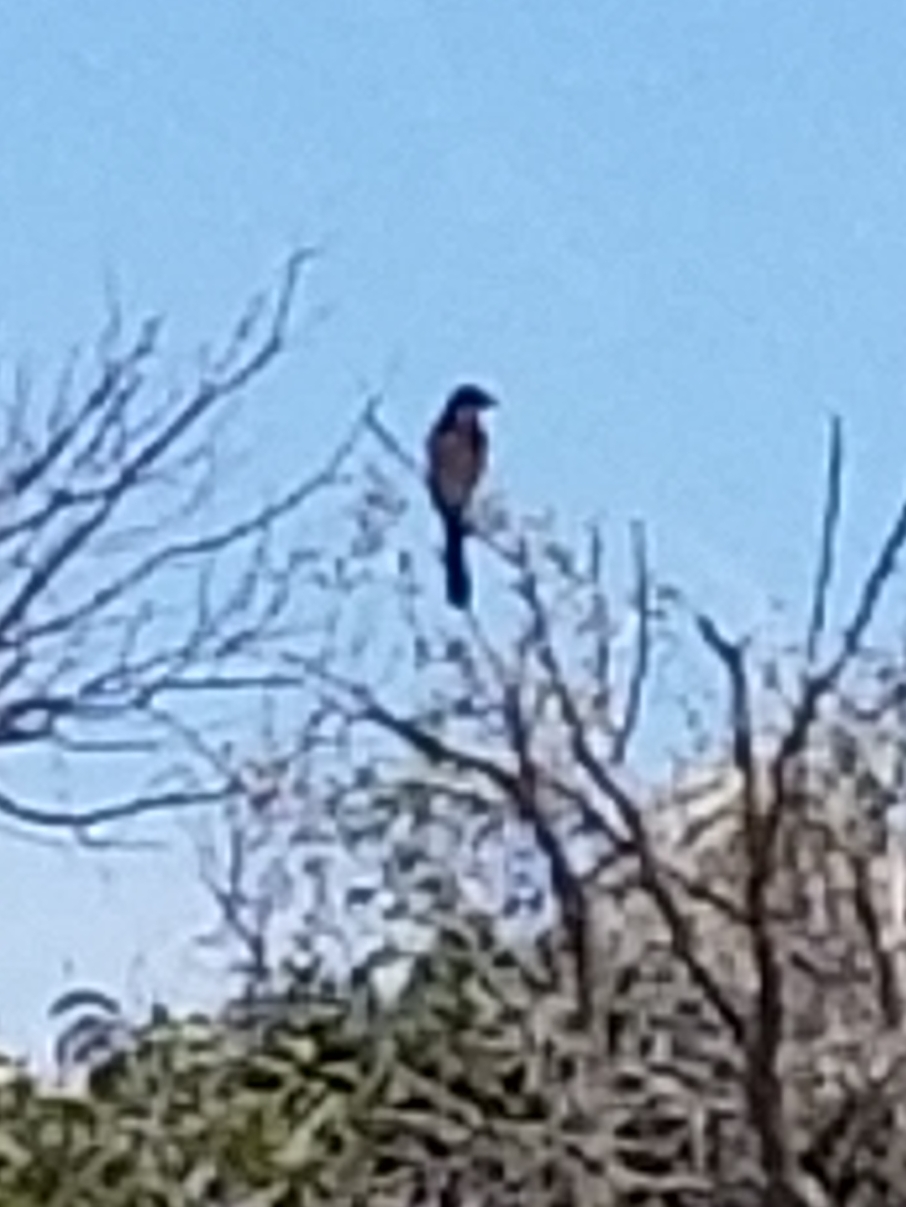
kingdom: Animalia
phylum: Chordata
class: Aves
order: Passeriformes
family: Corvidae
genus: Aphelocoma
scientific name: Aphelocoma californica
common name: California scrub-jay
